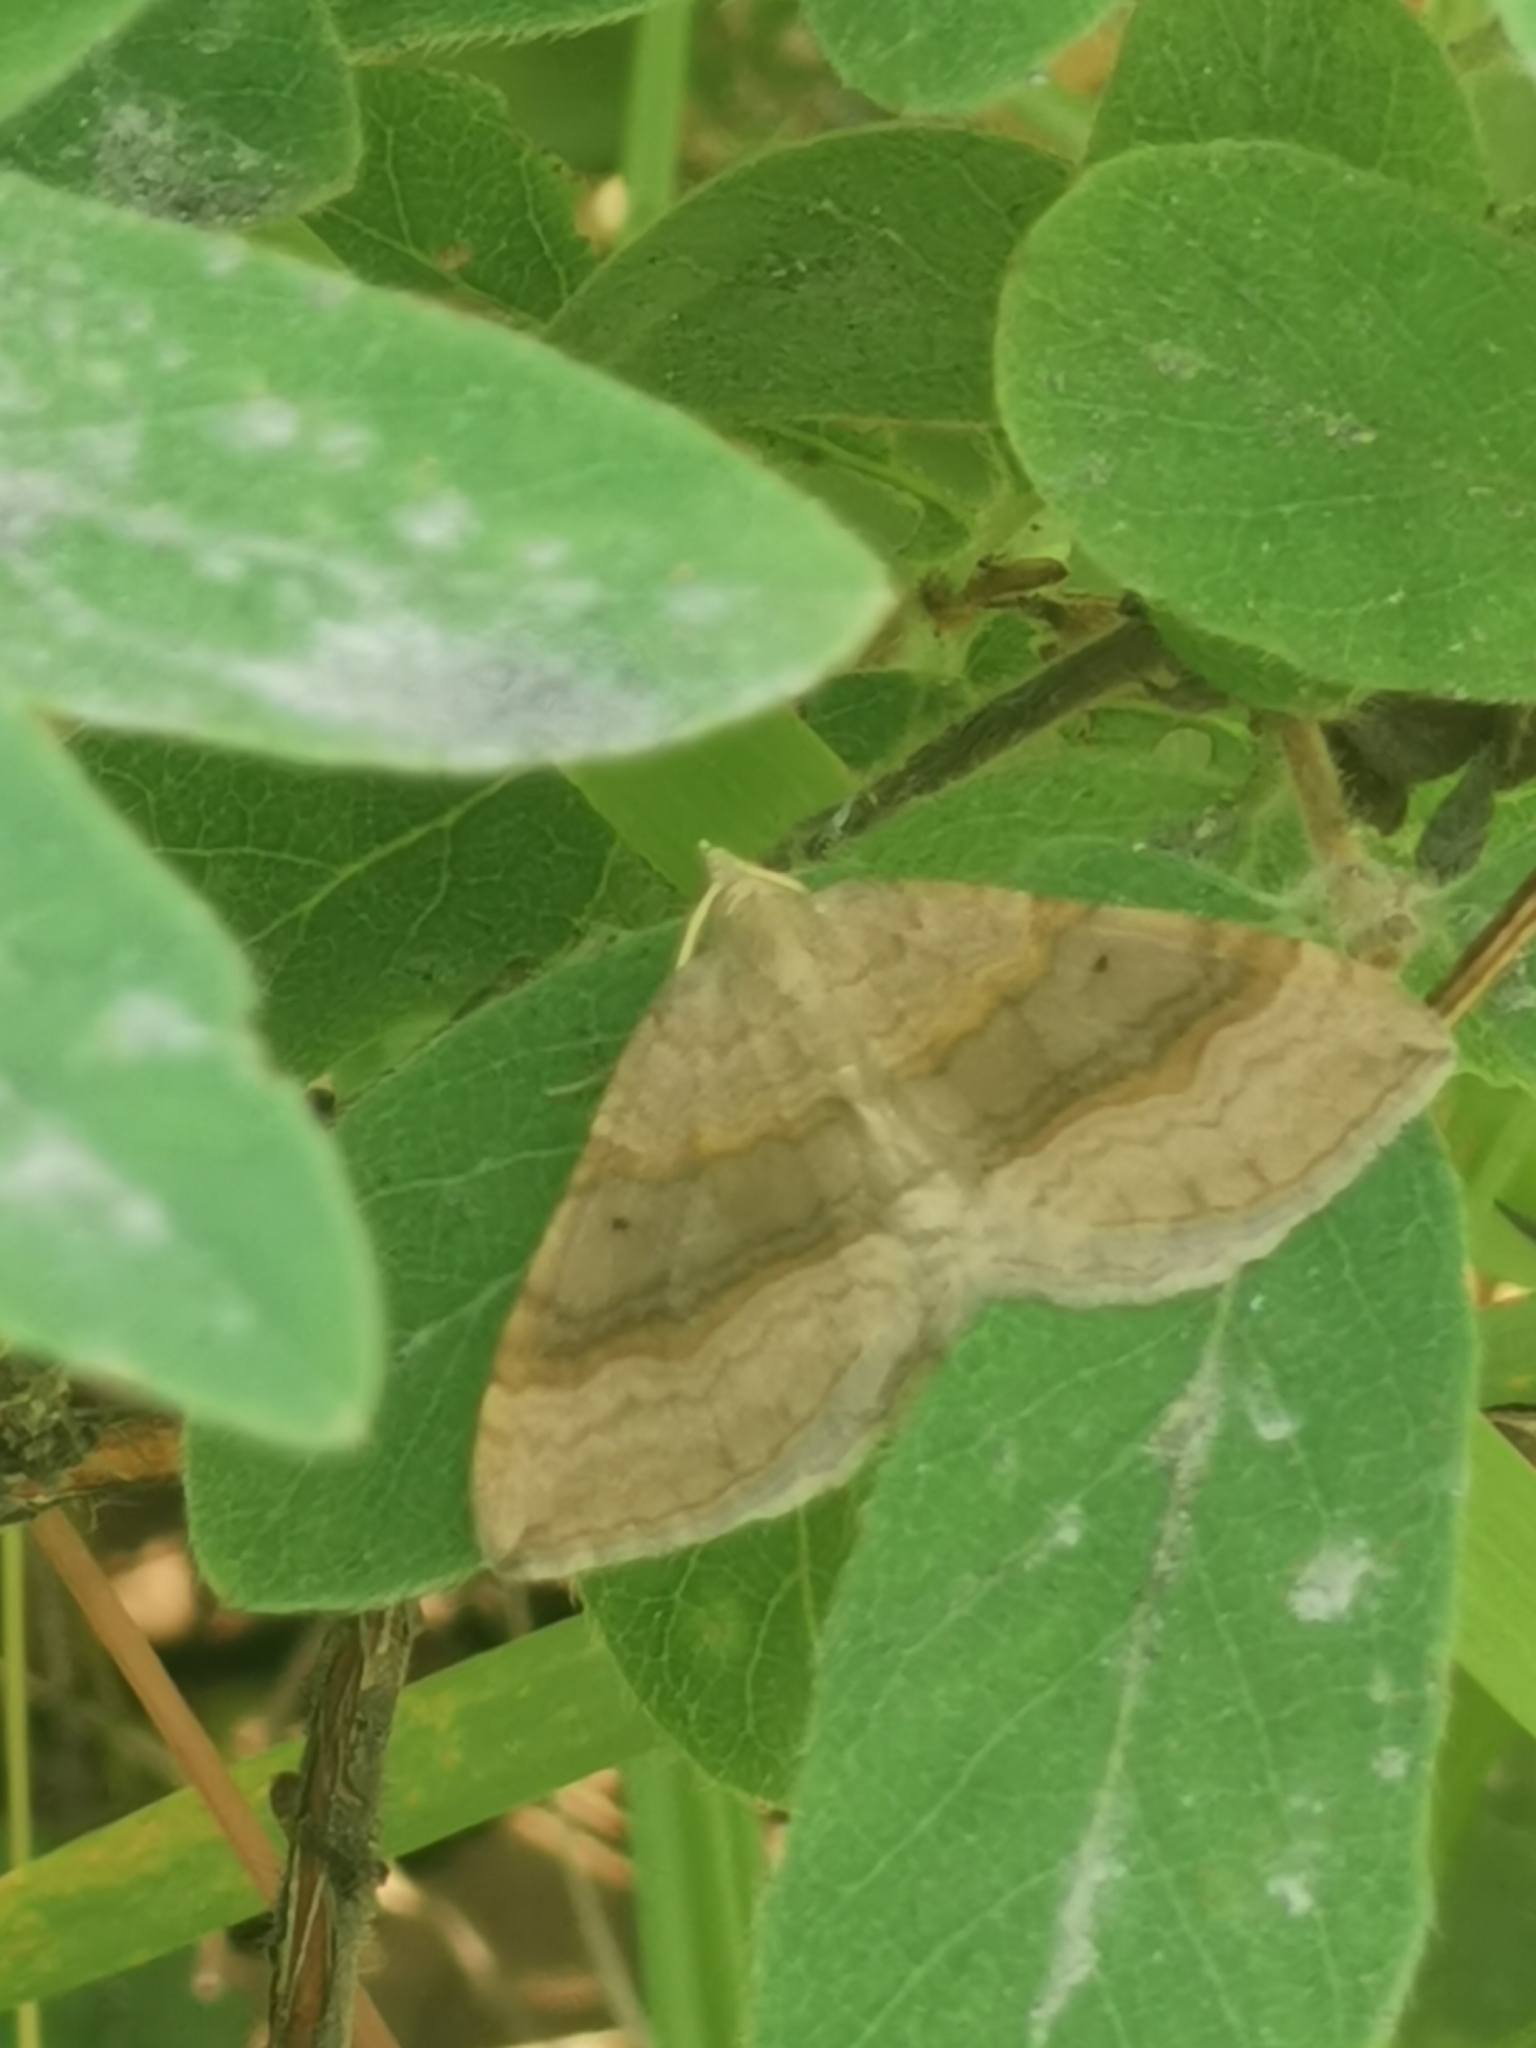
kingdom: Animalia
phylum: Arthropoda
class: Insecta
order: Lepidoptera
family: Geometridae
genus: Scotopteryx
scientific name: Scotopteryx chenopodiata
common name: Shaded broad-bar
